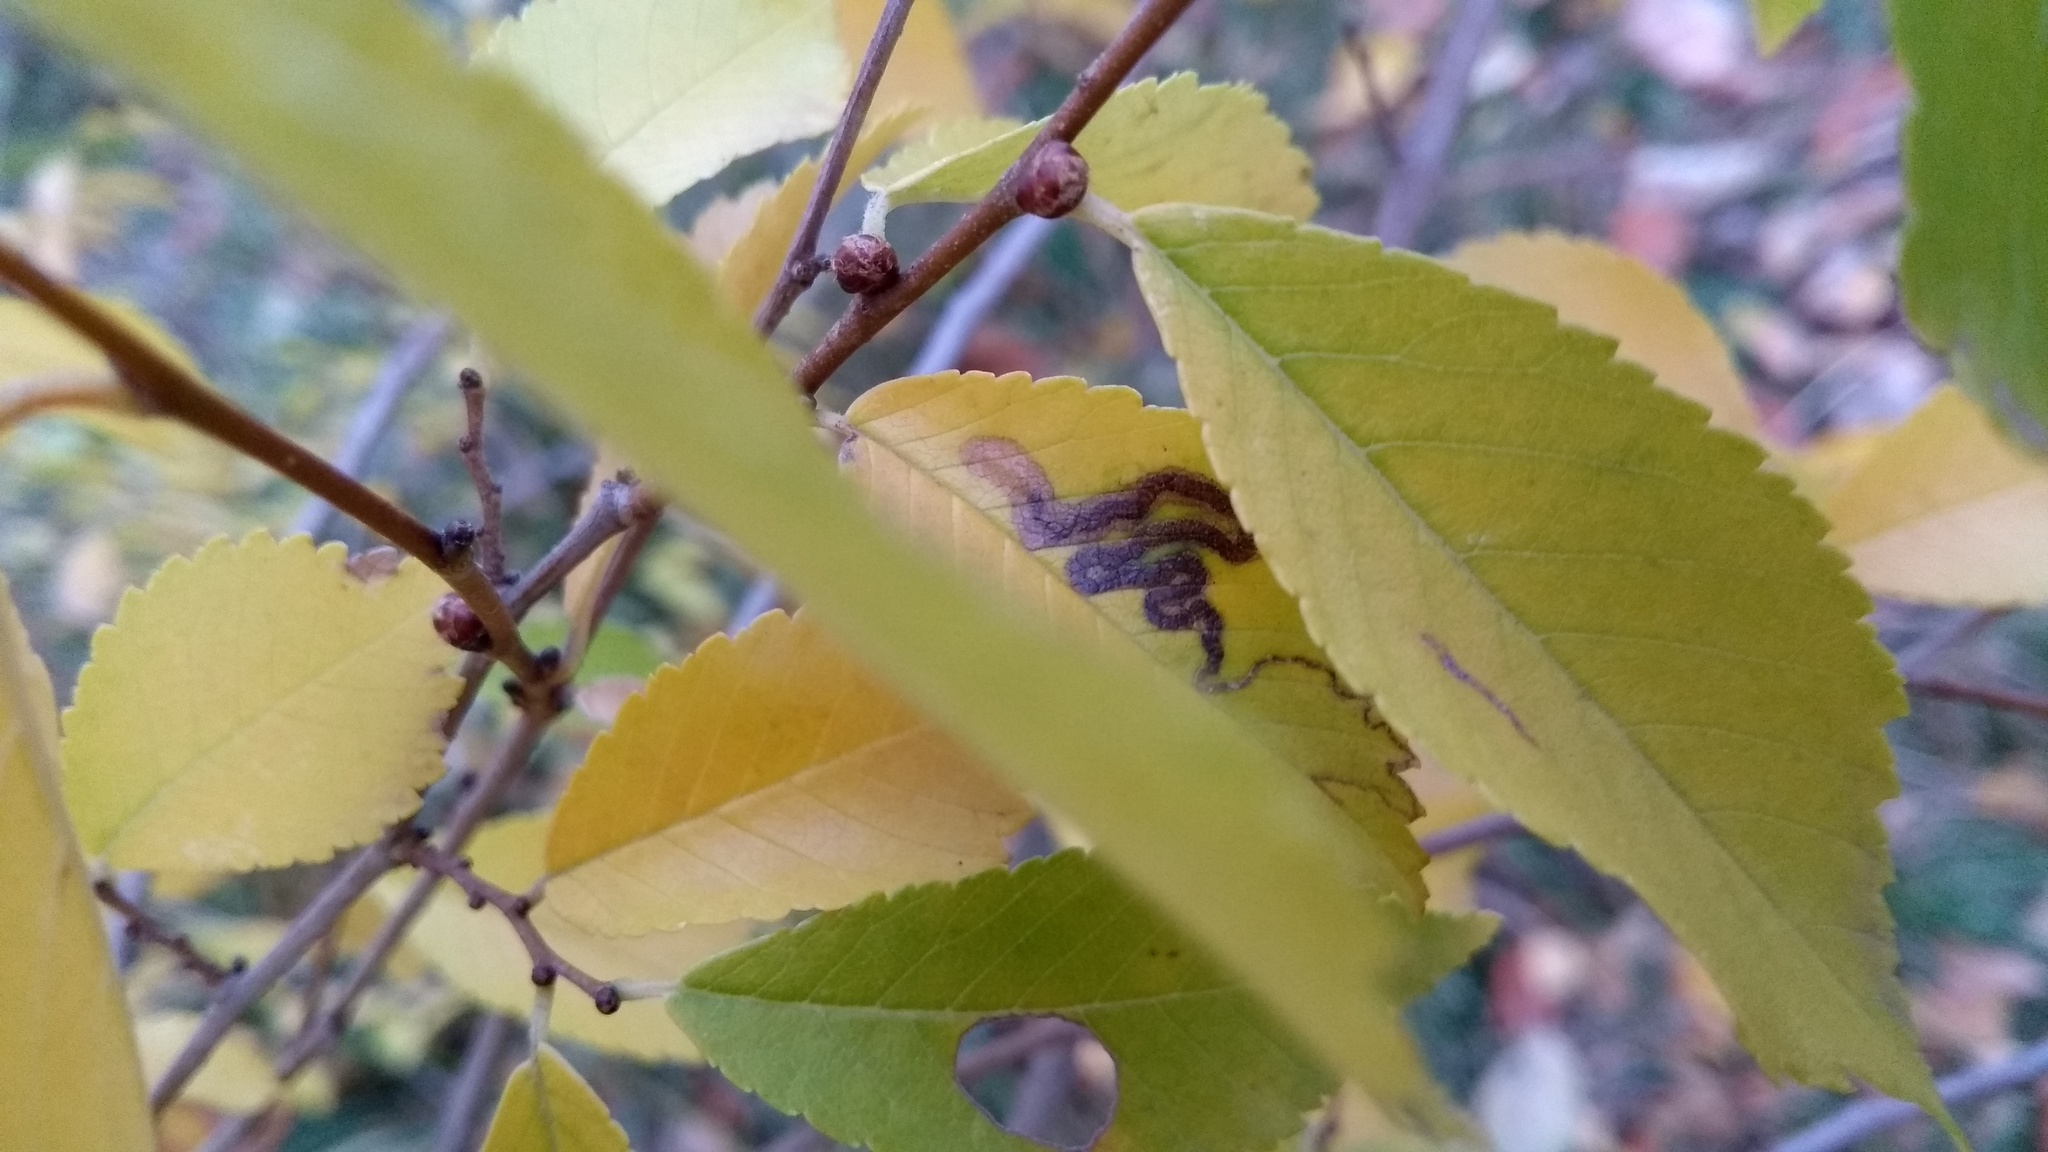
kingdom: Animalia
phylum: Arthropoda
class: Insecta
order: Lepidoptera
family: Nepticulidae
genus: Stigmella
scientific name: Stigmella
